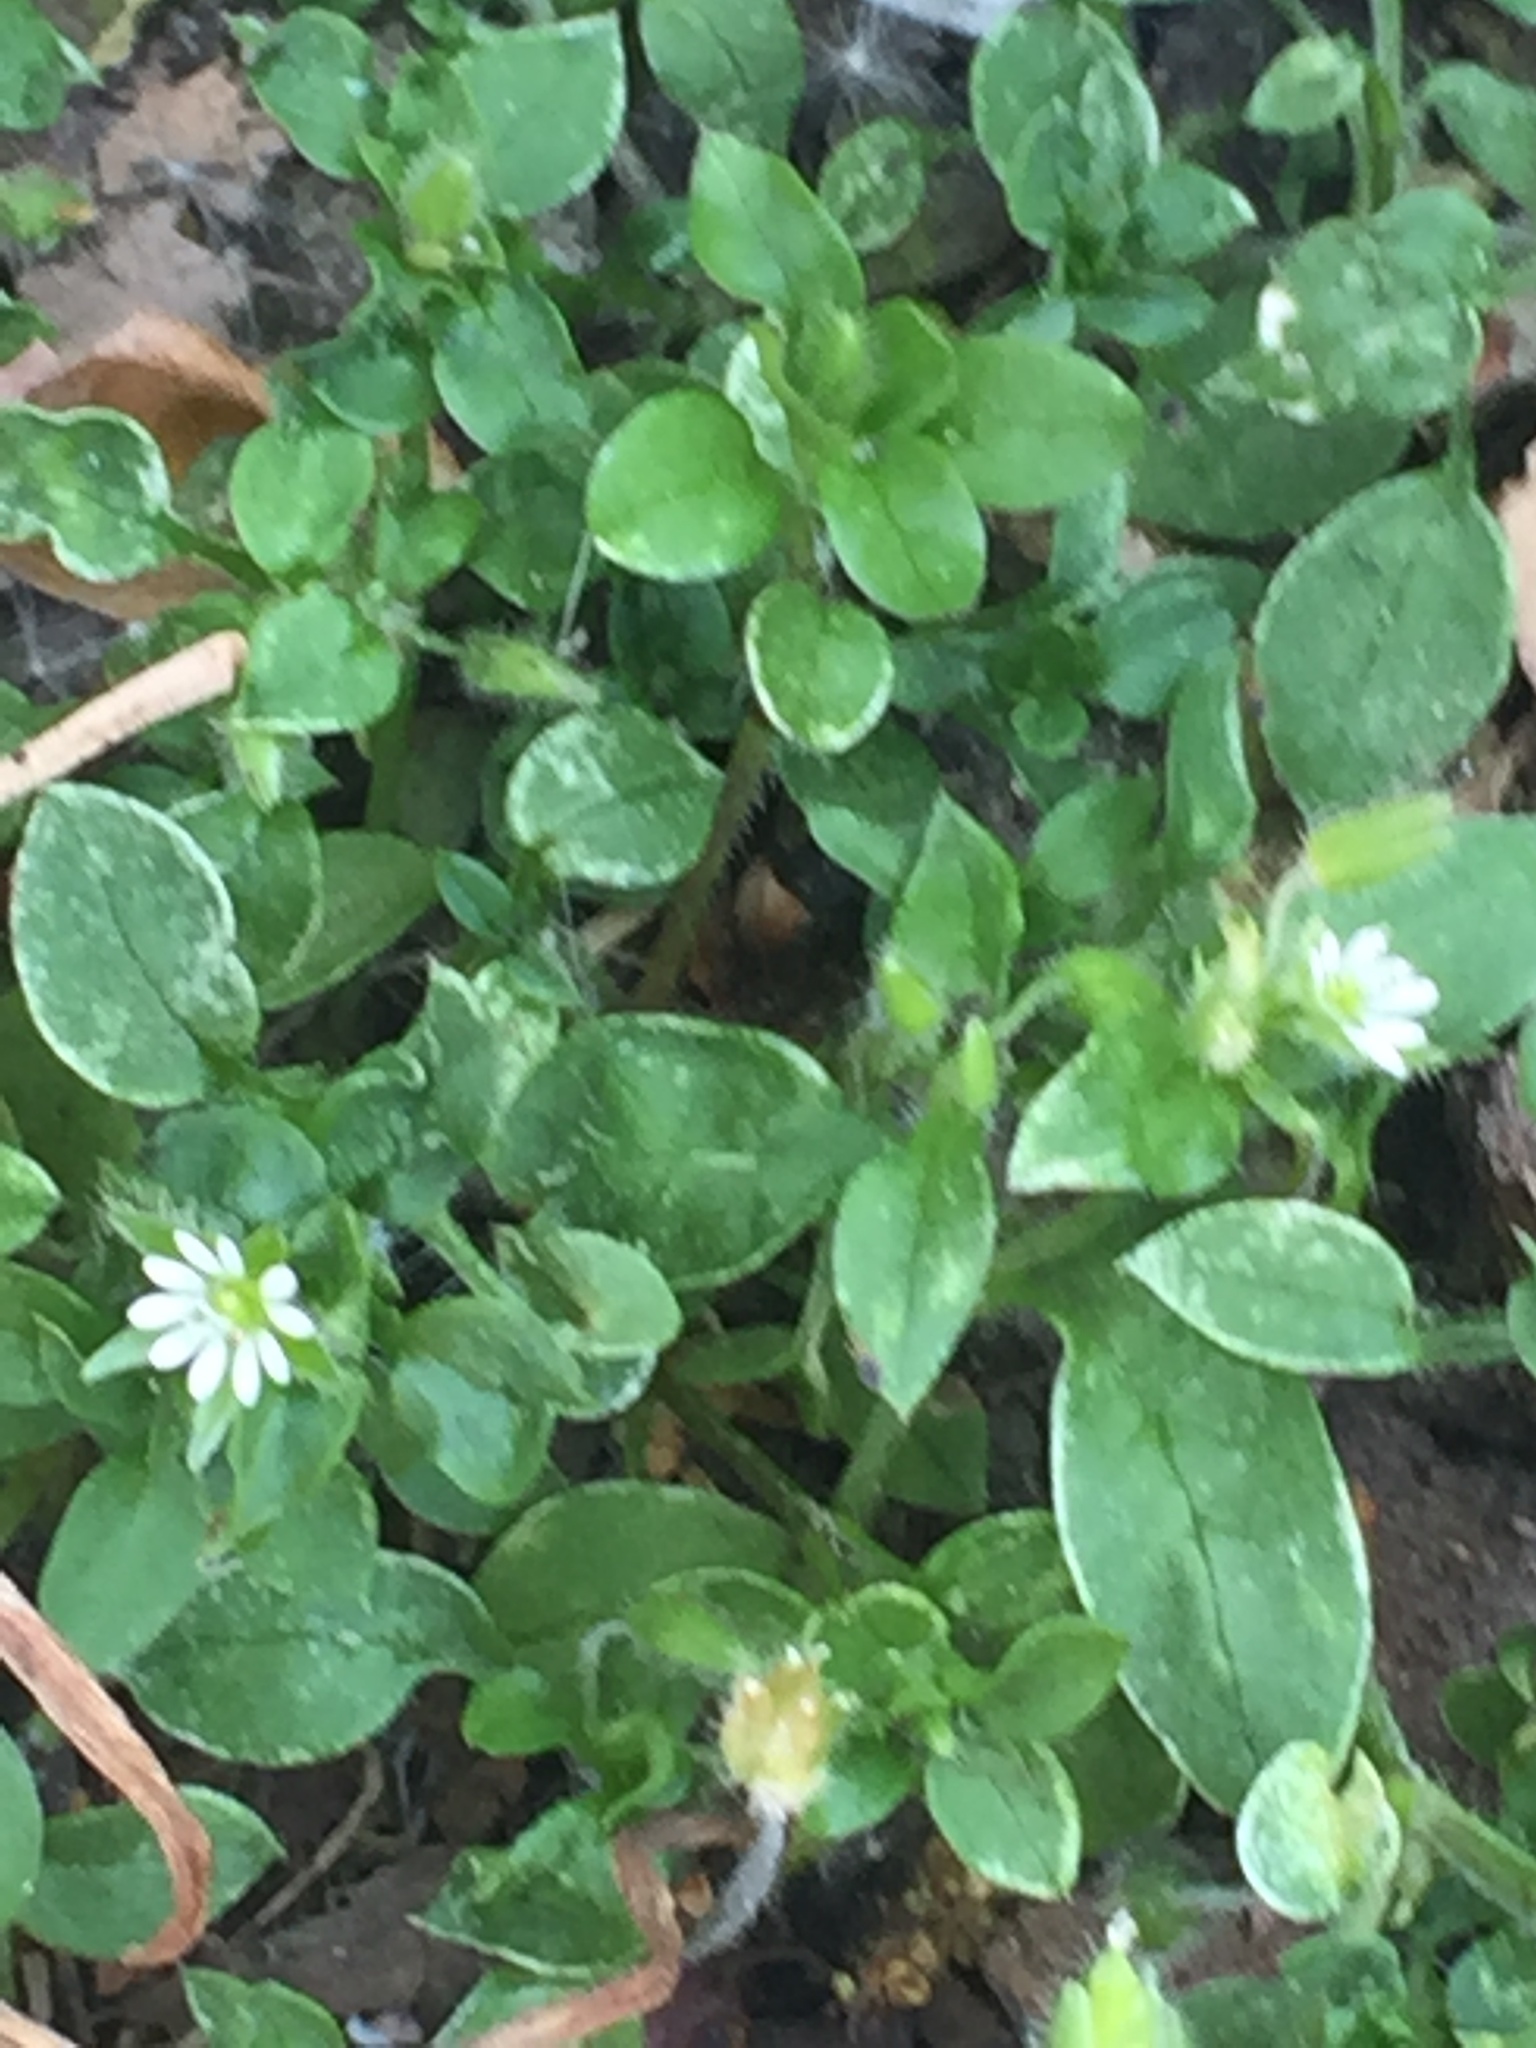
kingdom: Plantae
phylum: Tracheophyta
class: Magnoliopsida
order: Caryophyllales
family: Caryophyllaceae
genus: Stellaria
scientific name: Stellaria media
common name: Common chickweed
